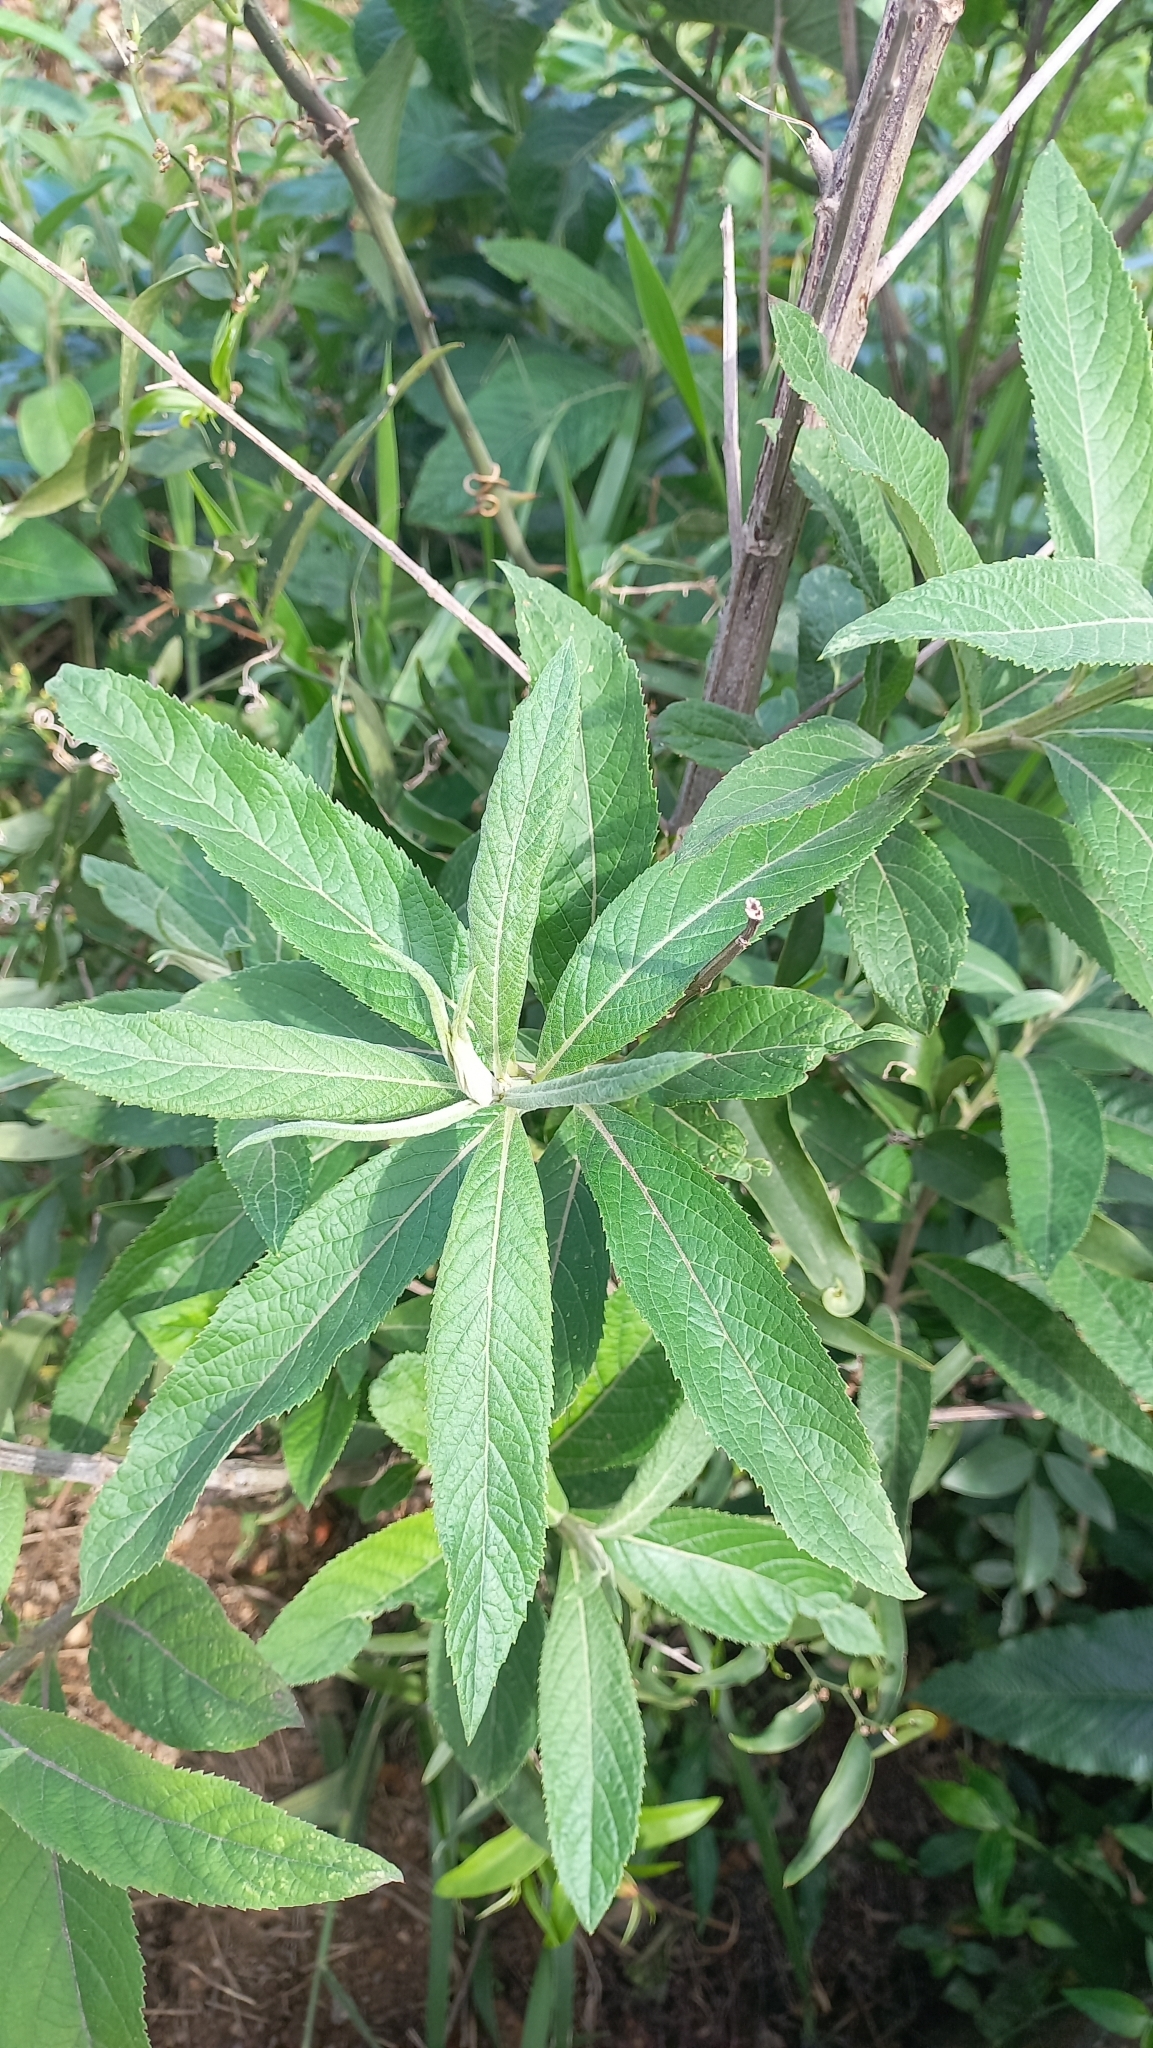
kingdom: Plantae
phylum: Tracheophyta
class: Magnoliopsida
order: Asterales
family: Asteraceae
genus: Vernonanthura
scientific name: Vernonanthura tweedieana
